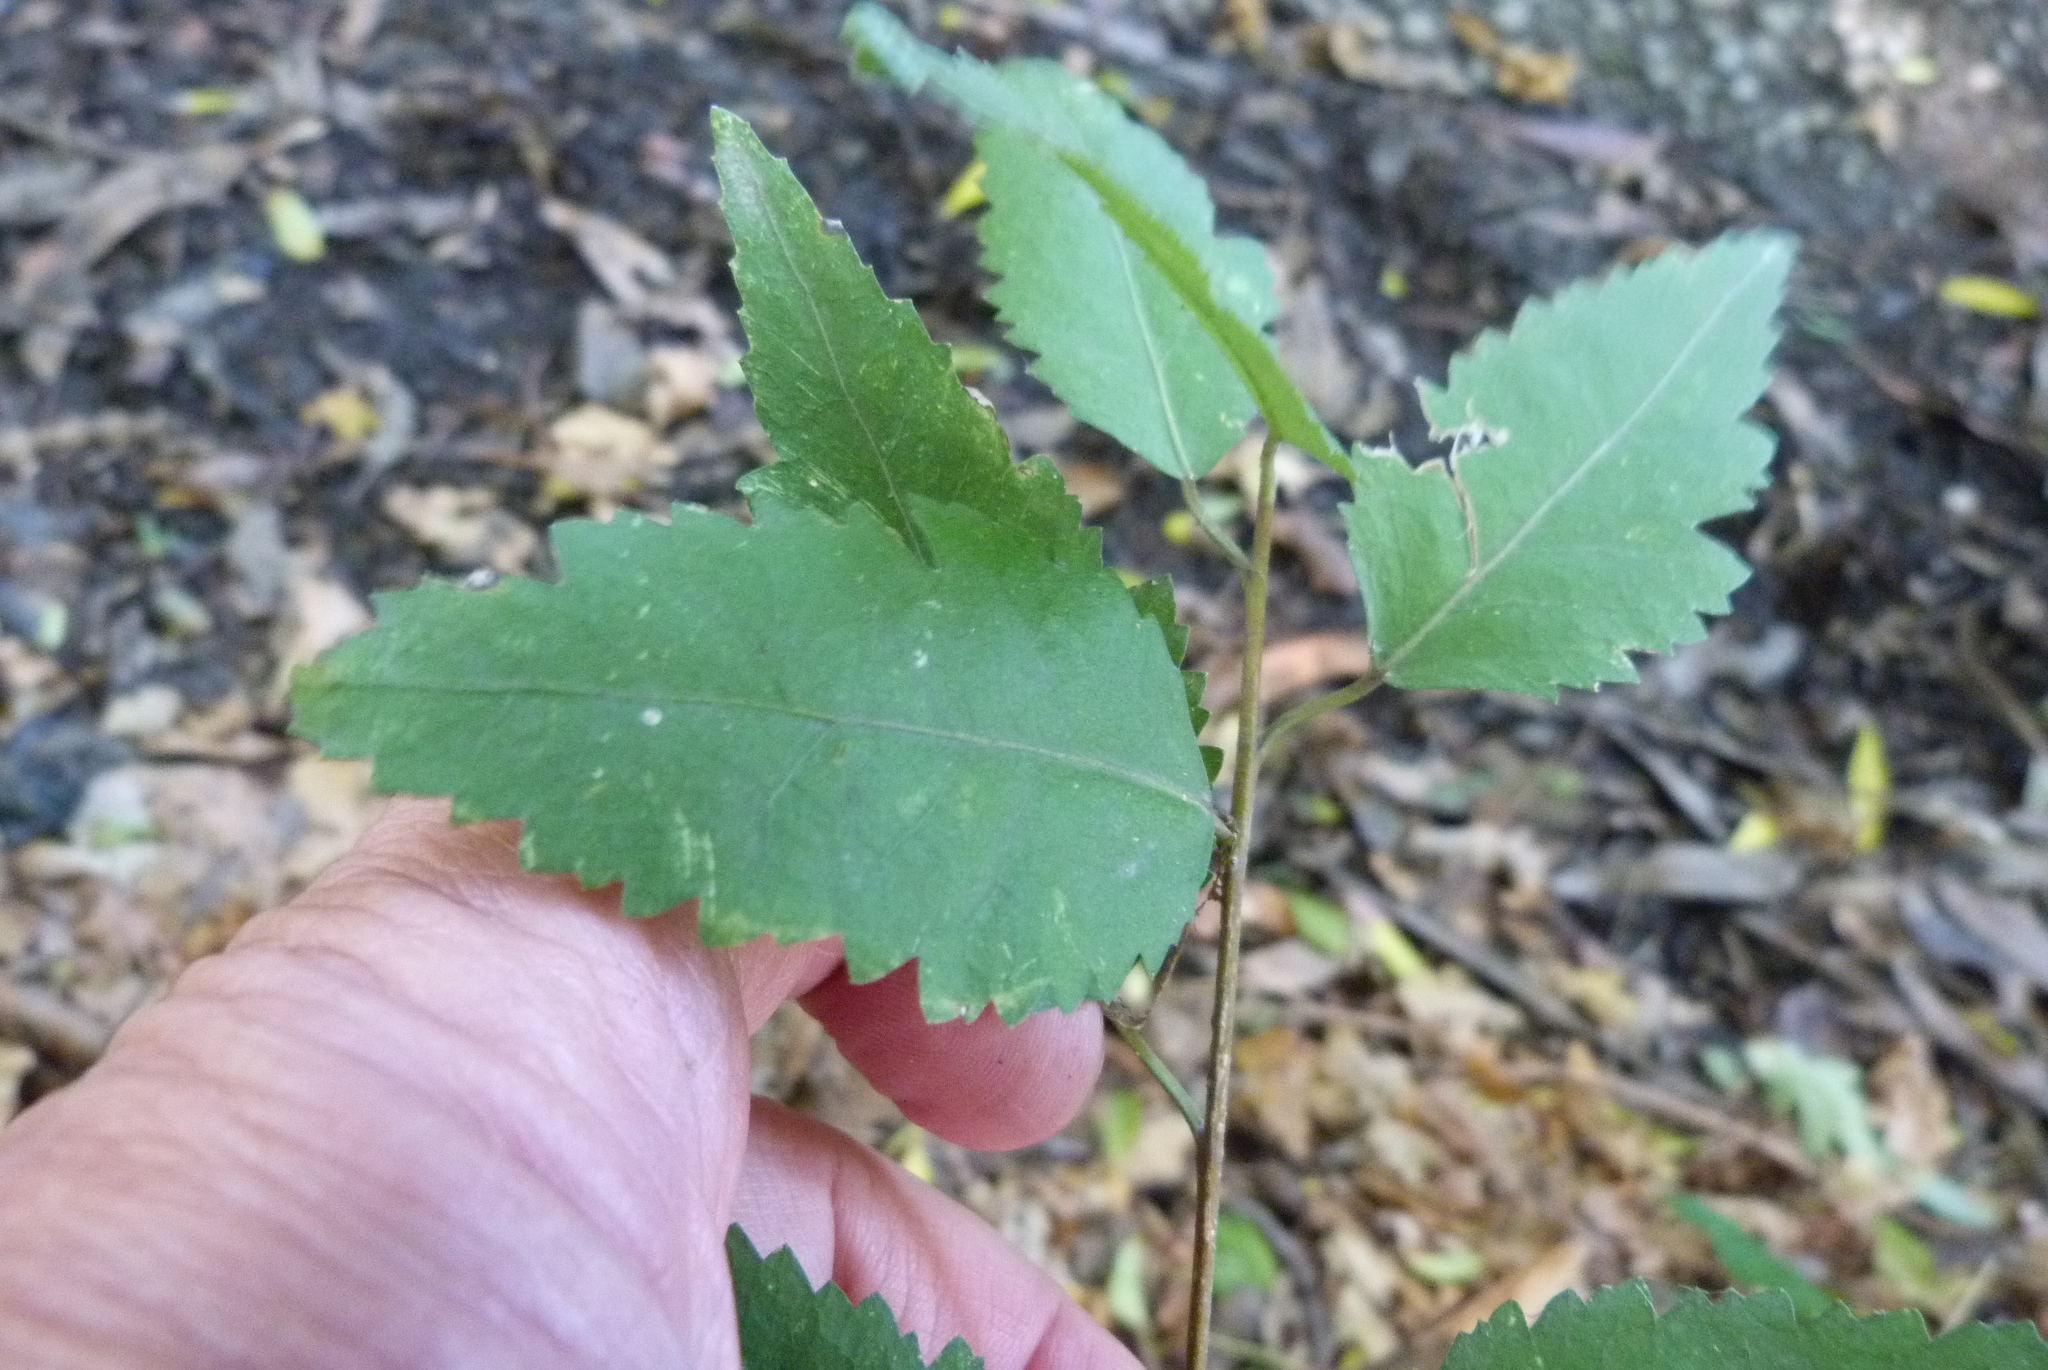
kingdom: Plantae
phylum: Tracheophyta
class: Magnoliopsida
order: Malvales
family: Malvaceae
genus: Hoheria
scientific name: Hoheria populnea
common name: Lacebark
